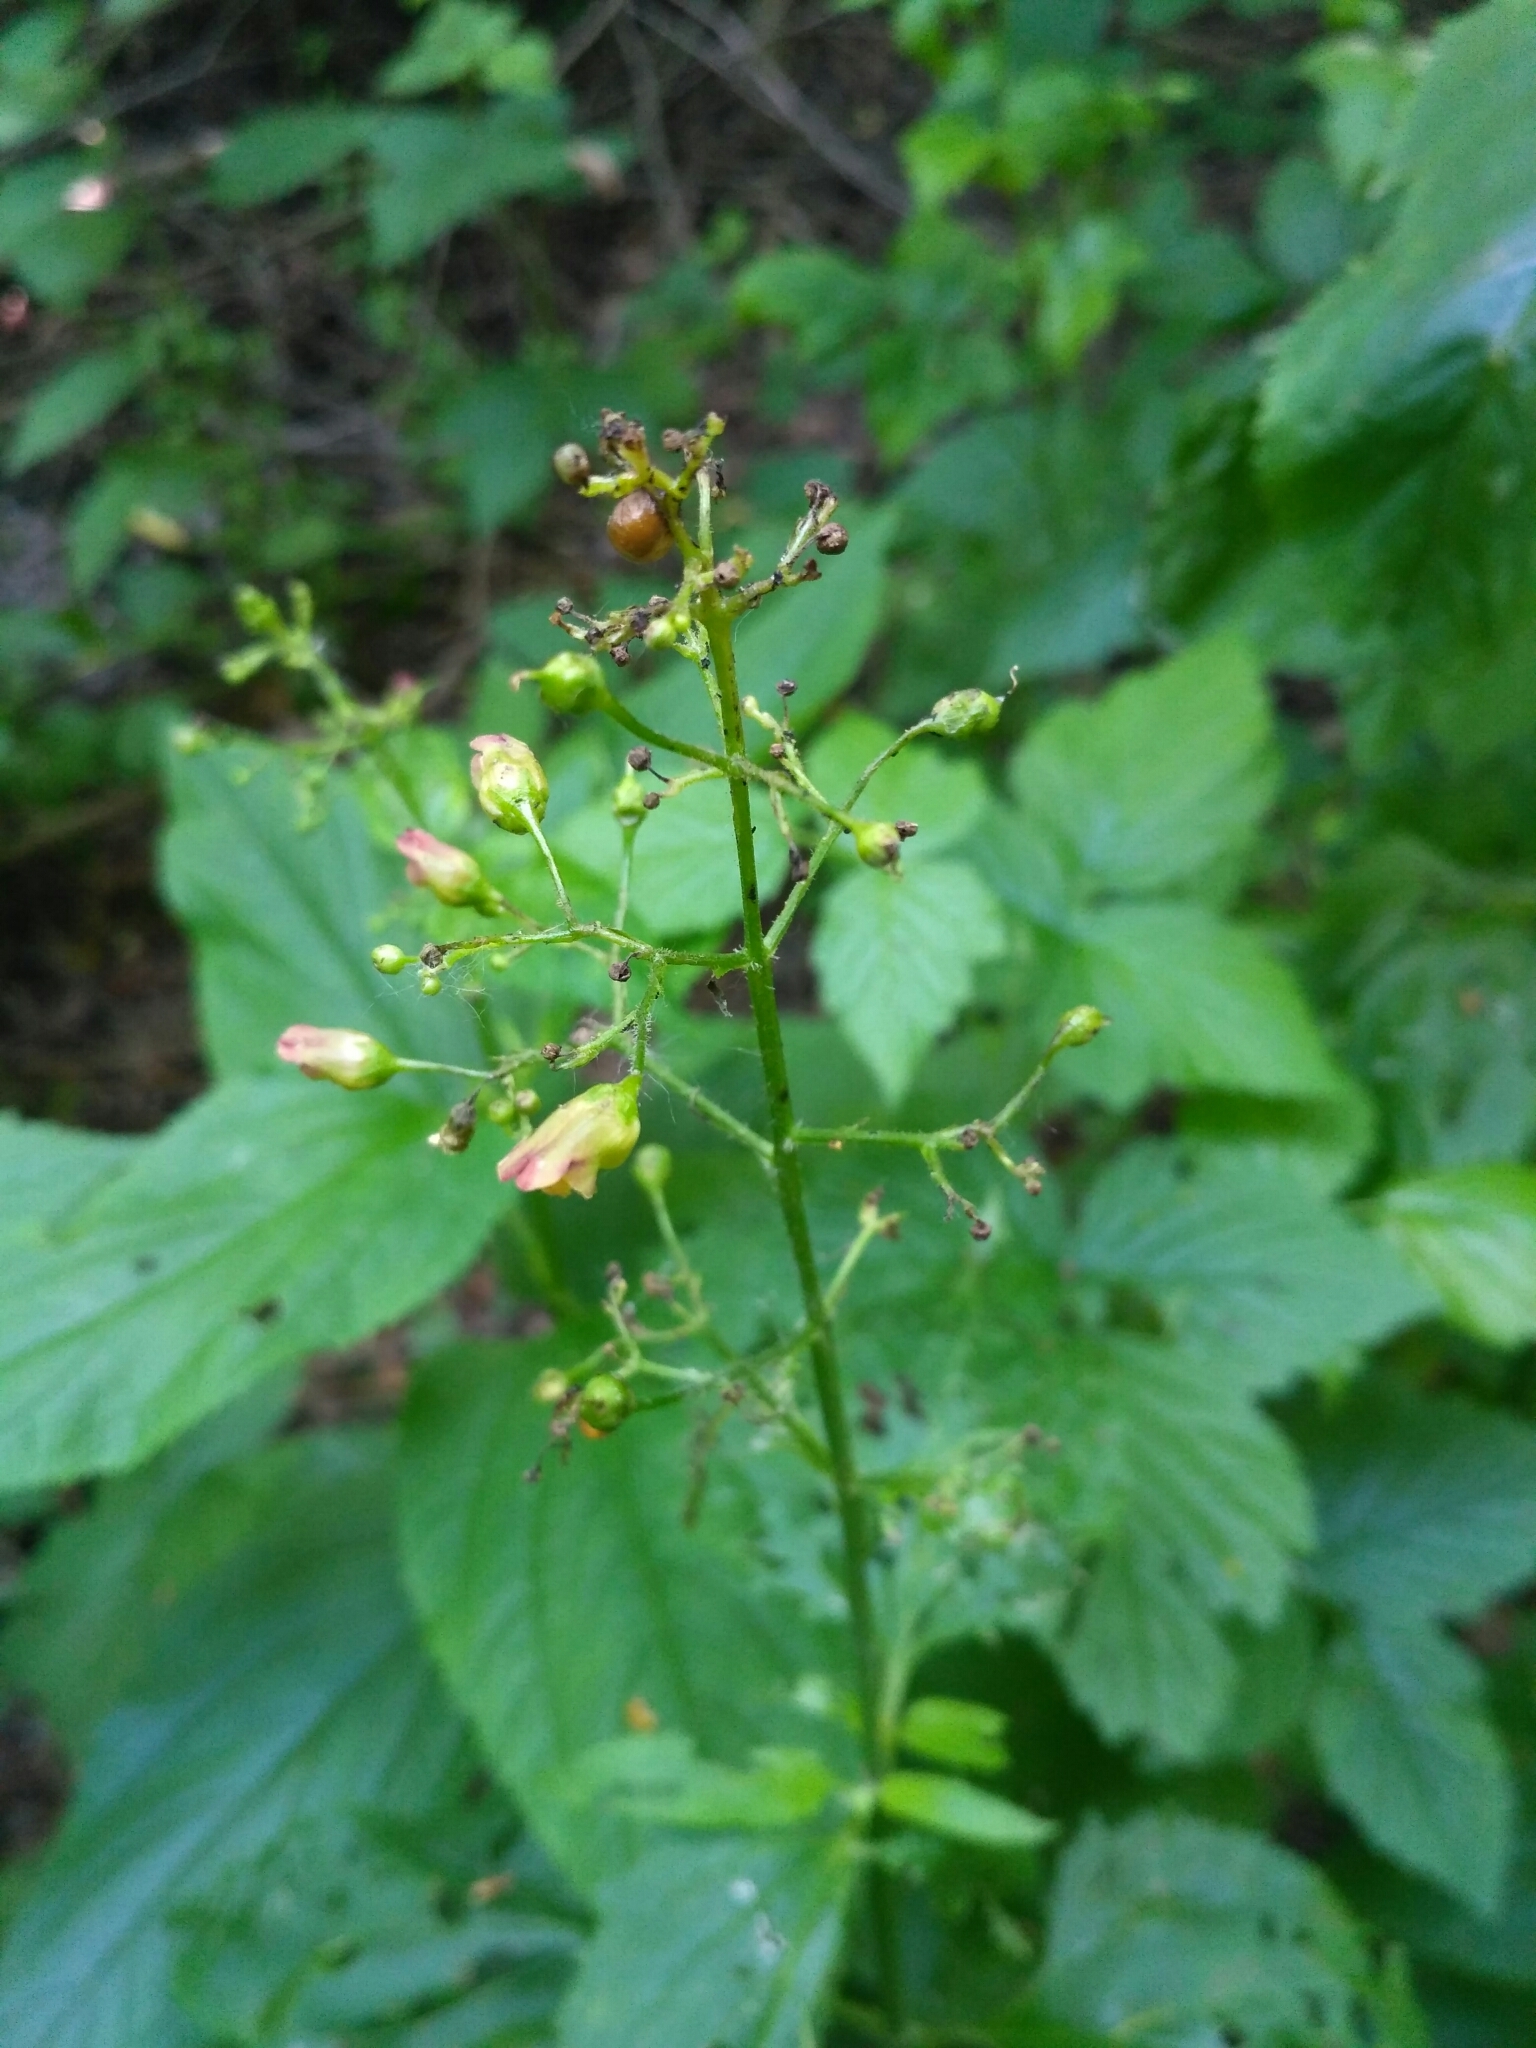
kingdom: Plantae
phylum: Tracheophyta
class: Magnoliopsida
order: Lamiales
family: Scrophulariaceae
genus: Scrophularia
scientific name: Scrophularia nodosa
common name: Common figwort
